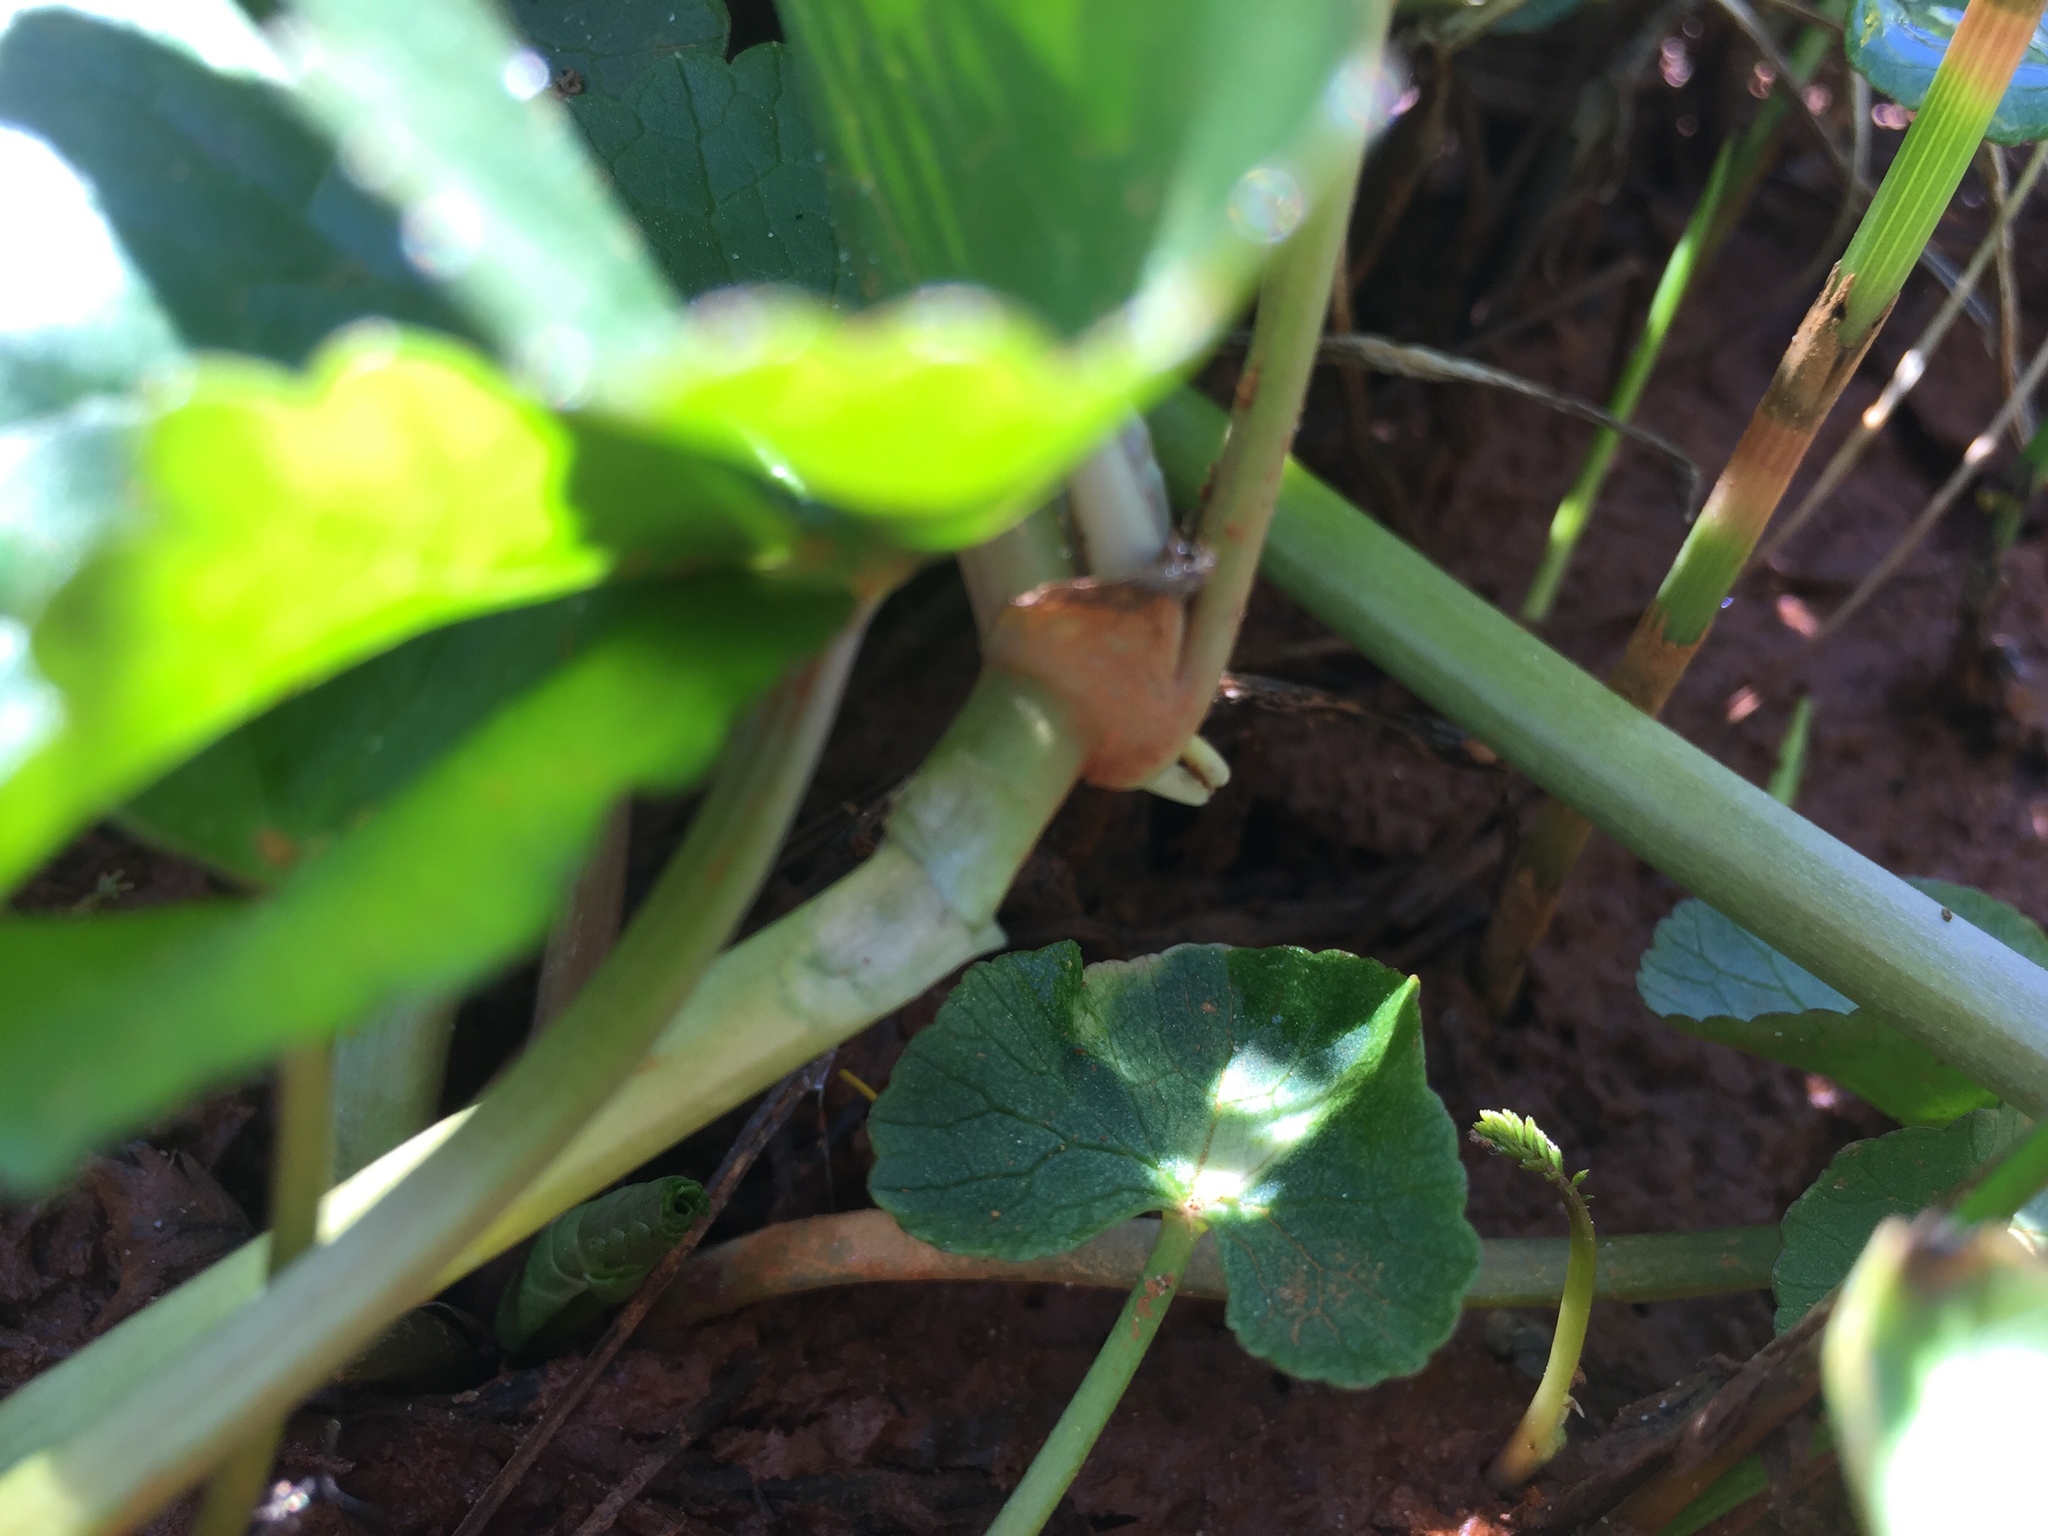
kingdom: Plantae
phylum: Tracheophyta
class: Magnoliopsida
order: Ranunculales
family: Ranunculaceae
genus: Caltha
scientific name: Caltha palustris
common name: Marsh marigold
